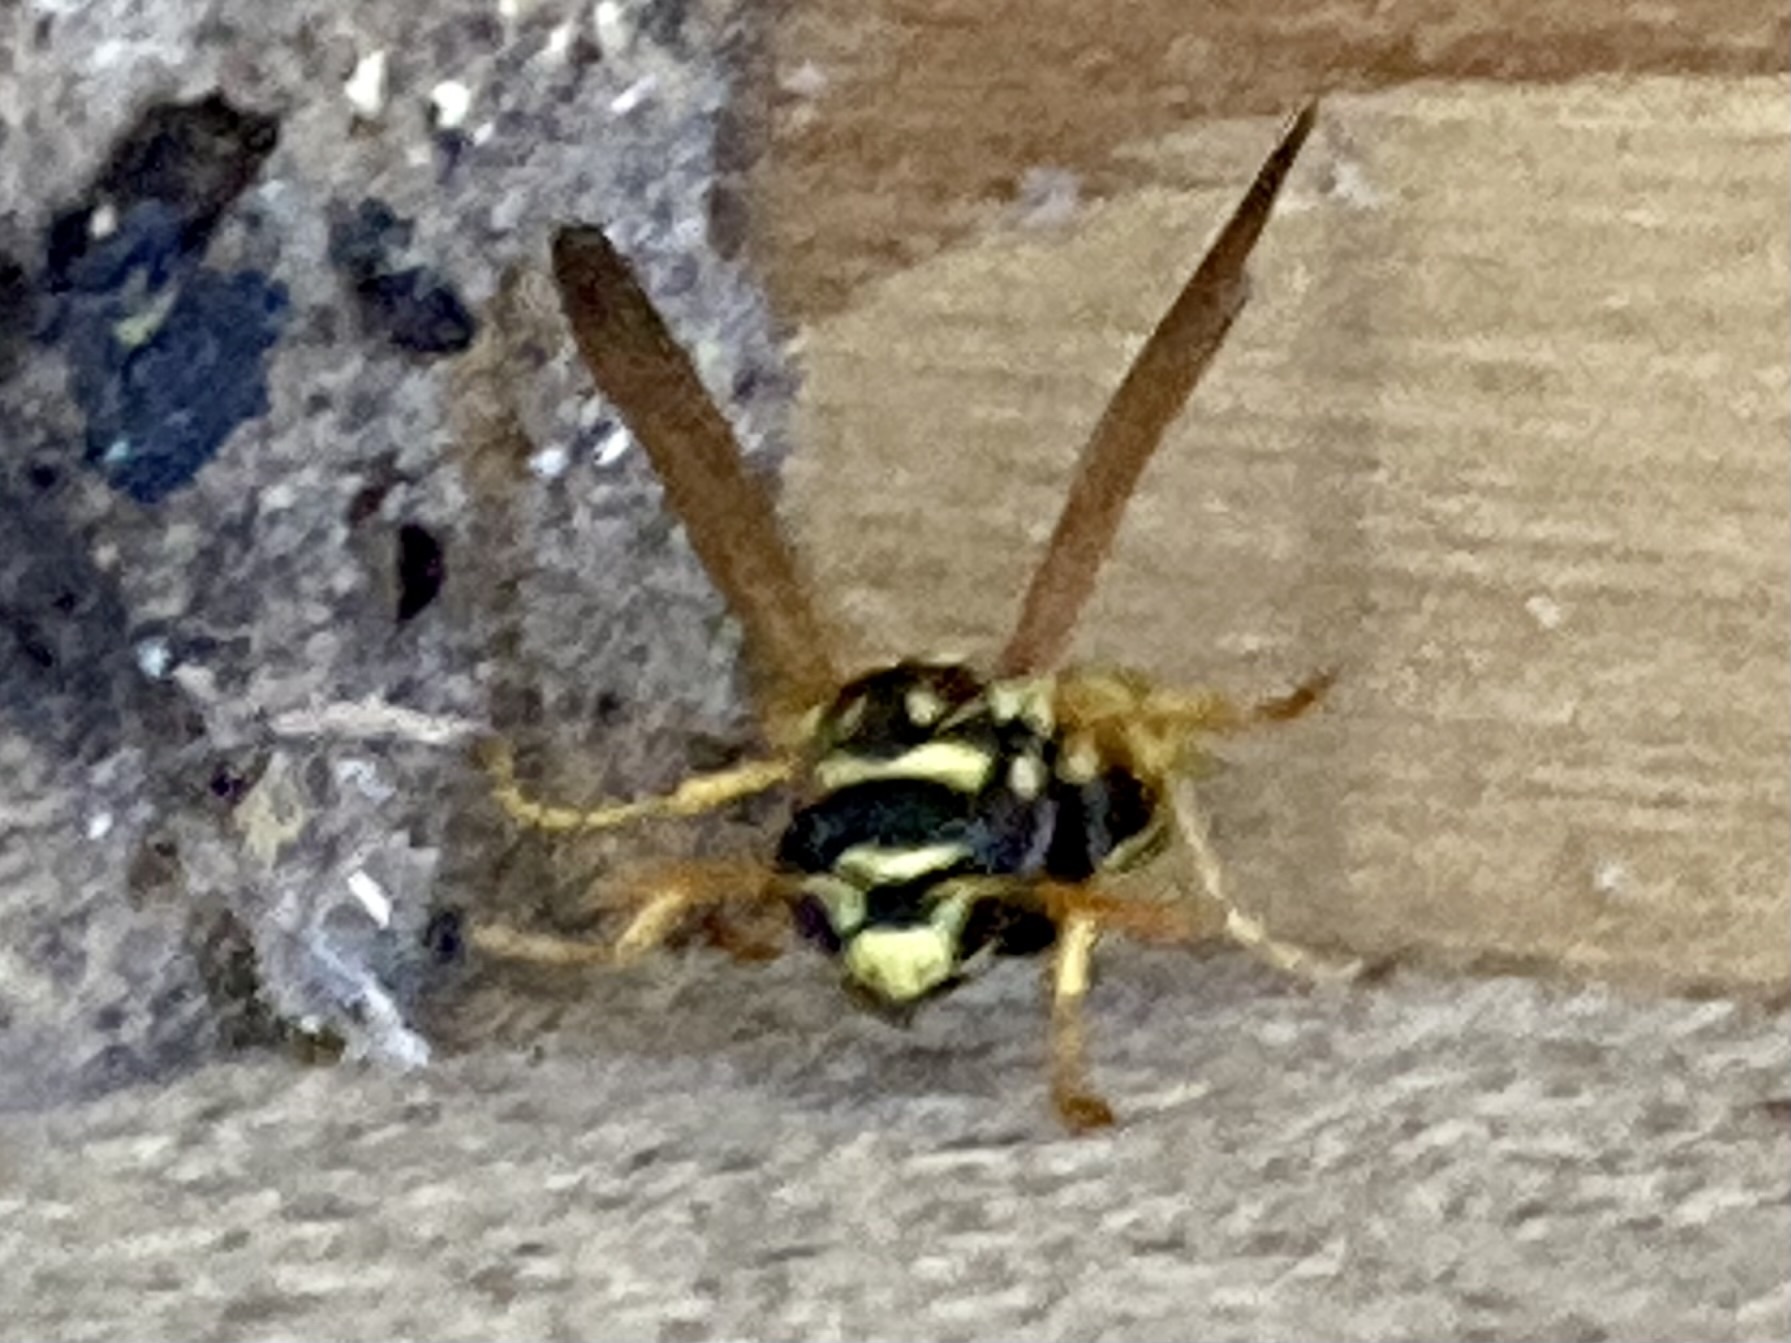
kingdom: Animalia
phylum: Arthropoda
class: Insecta
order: Hymenoptera
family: Eumenidae
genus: Polistes
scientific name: Polistes dominula
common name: Paper wasp
